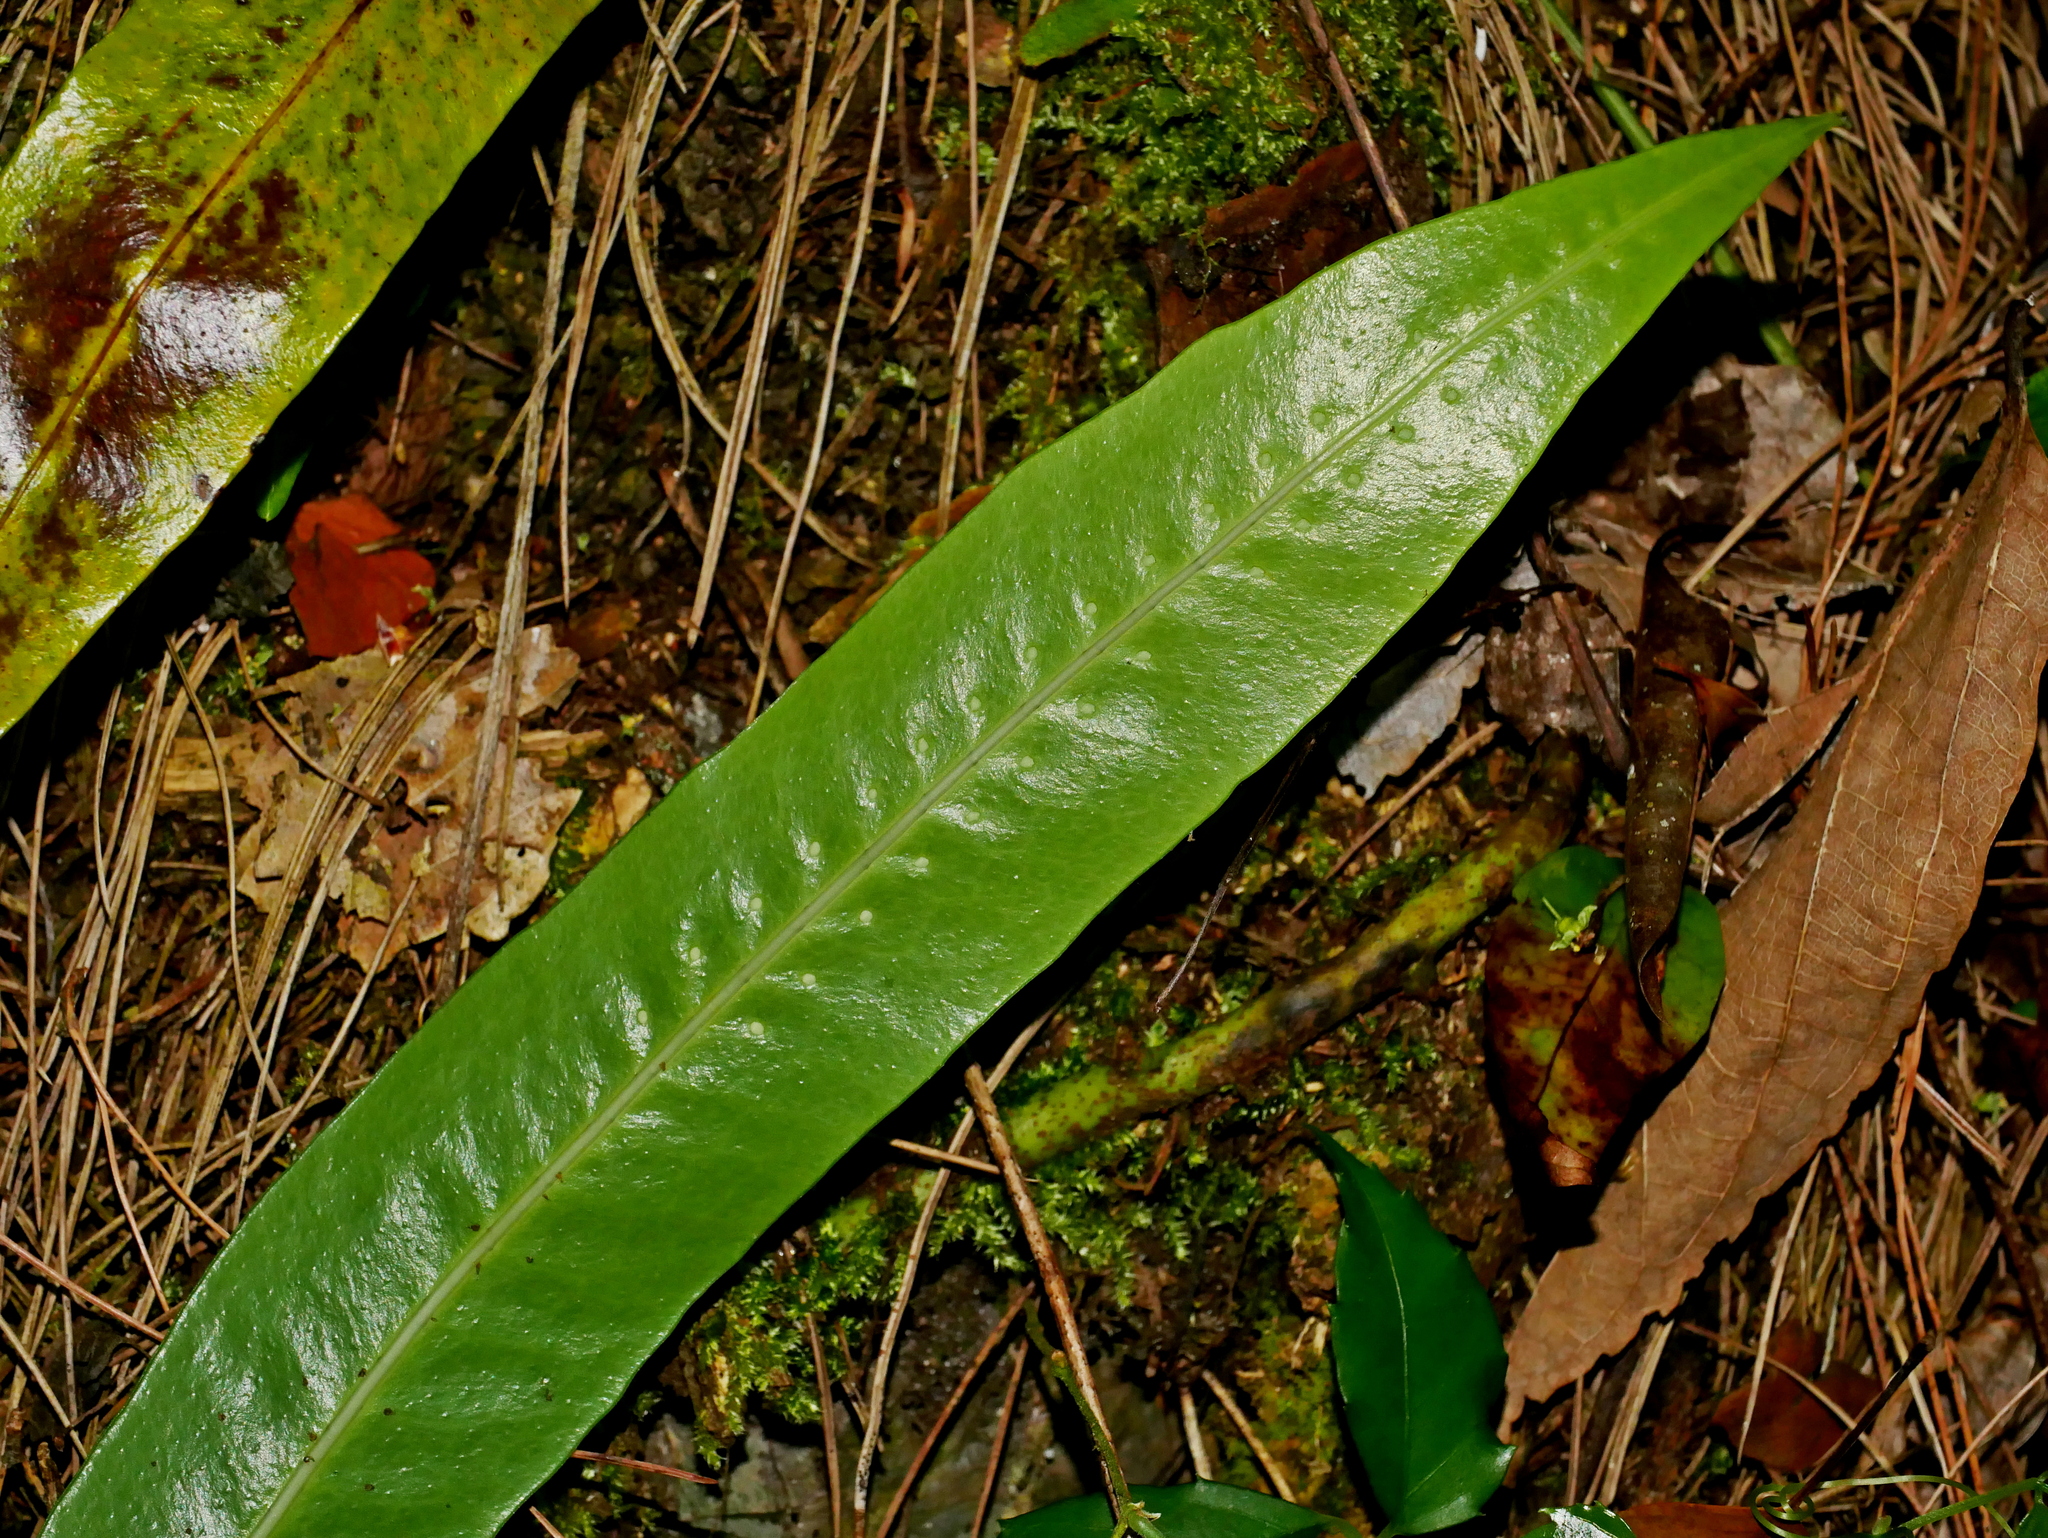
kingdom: Plantae
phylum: Tracheophyta
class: Polypodiopsida
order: Polypodiales
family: Polypodiaceae
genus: Lepisorus
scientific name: Lepisorus ensatus
